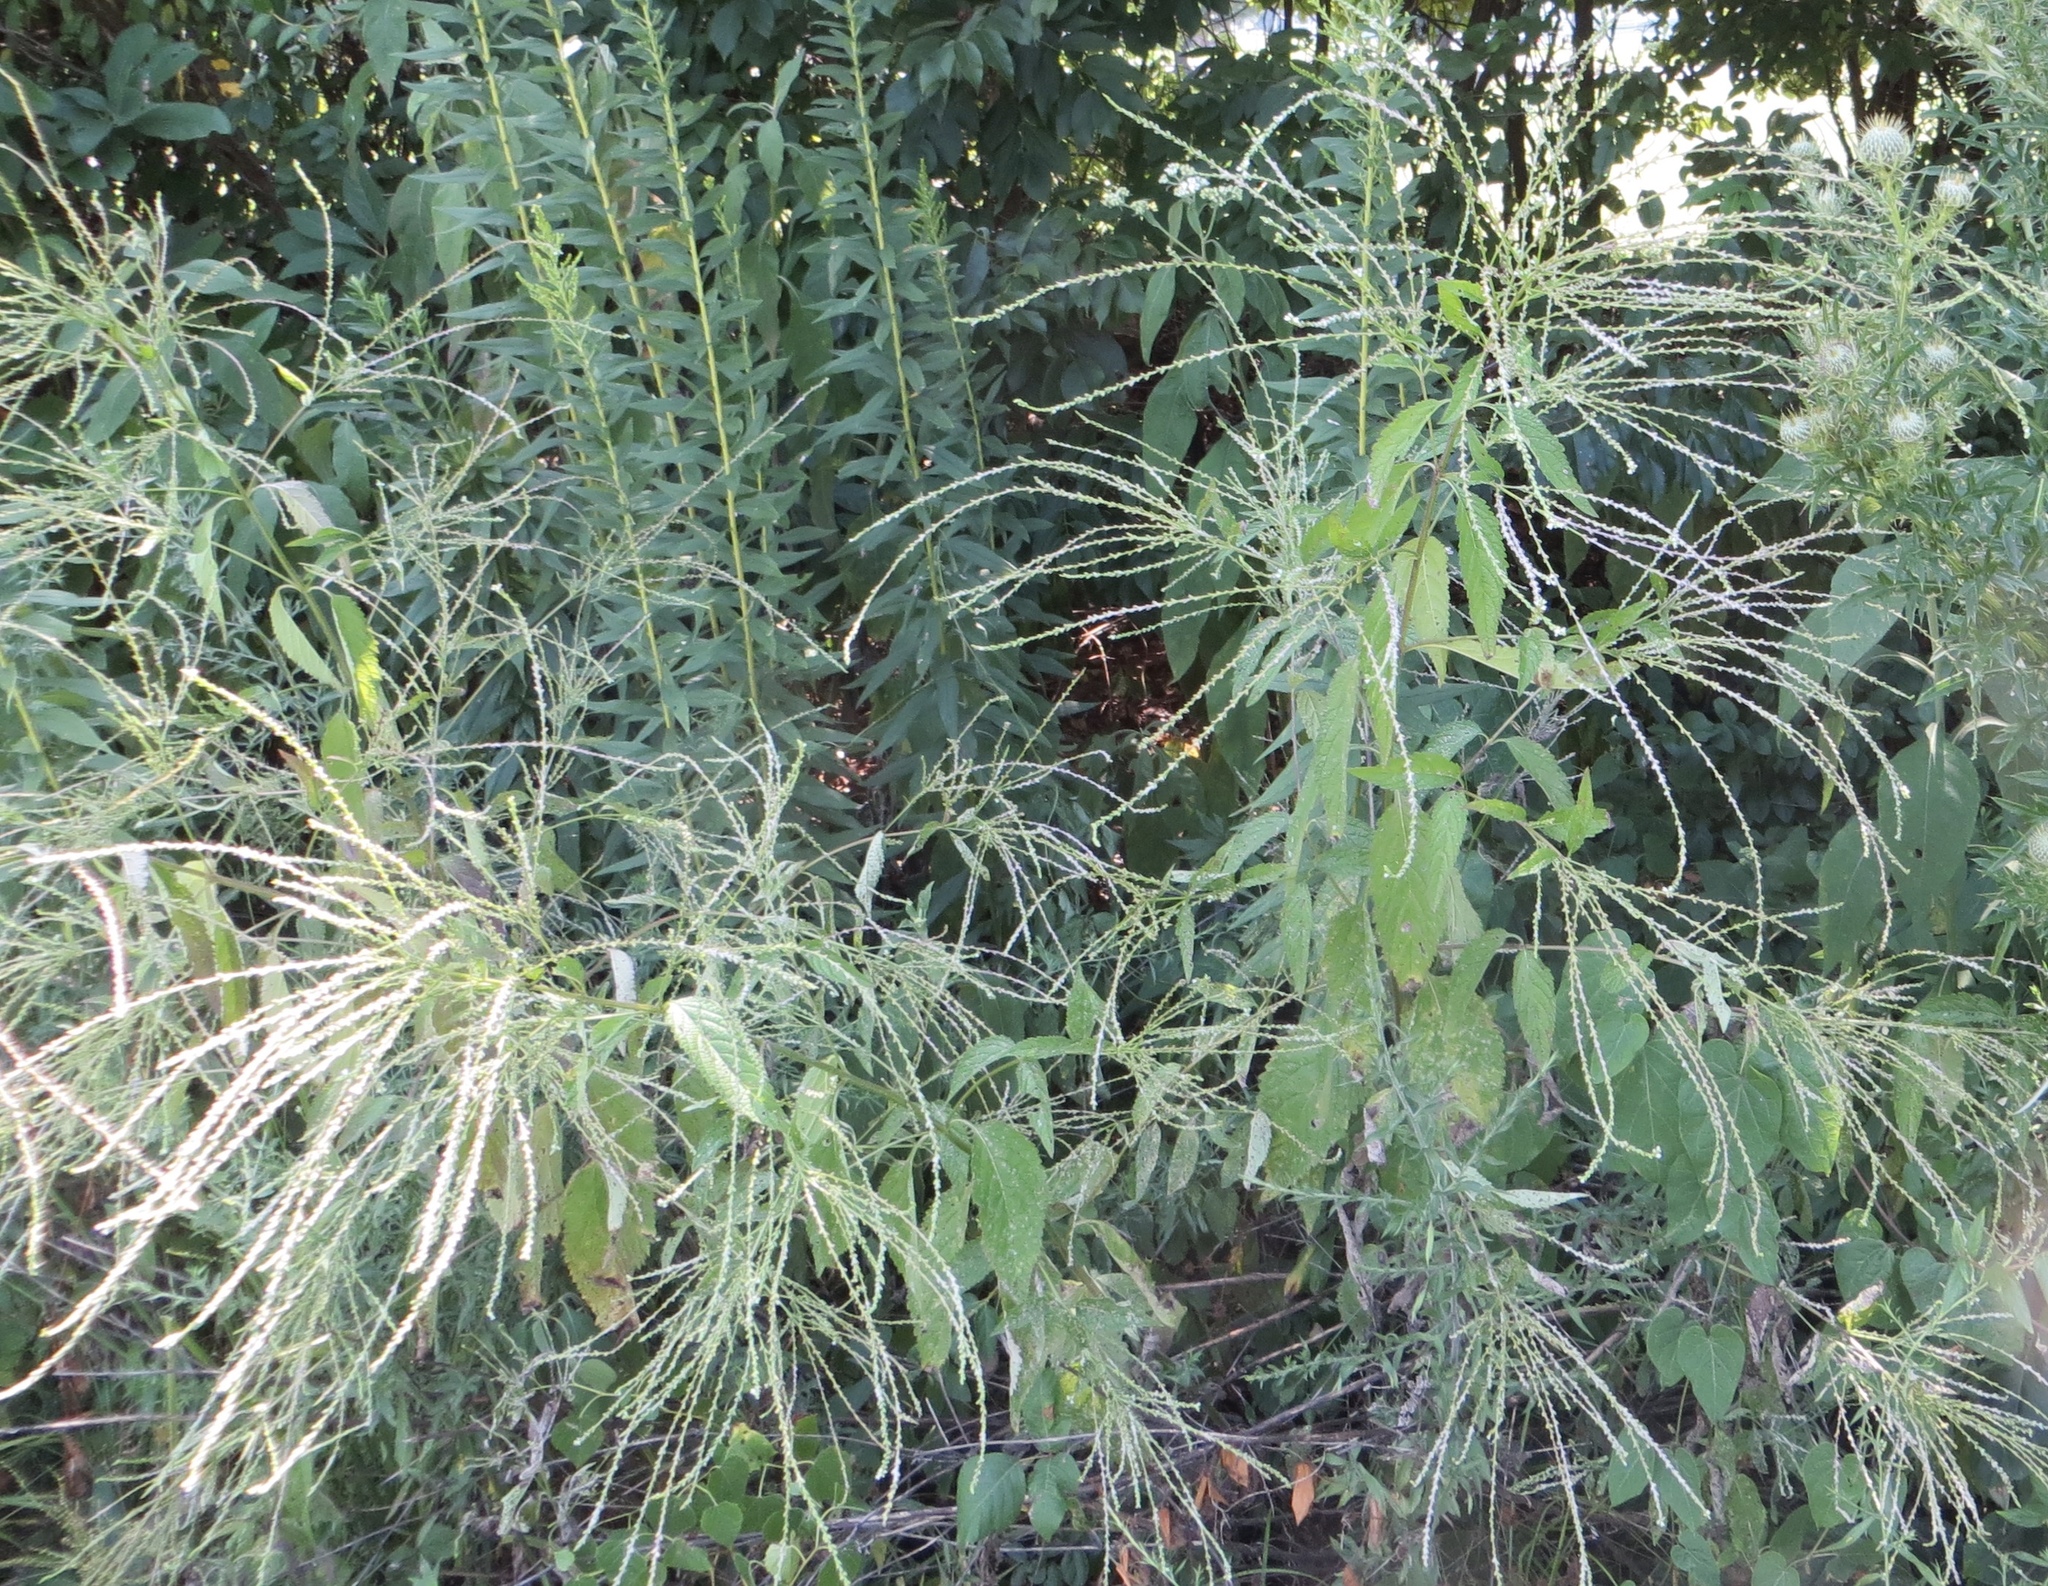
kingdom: Plantae
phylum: Tracheophyta
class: Magnoliopsida
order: Lamiales
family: Verbenaceae
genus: Verbena
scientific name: Verbena urticifolia
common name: Nettle-leaved vervain
